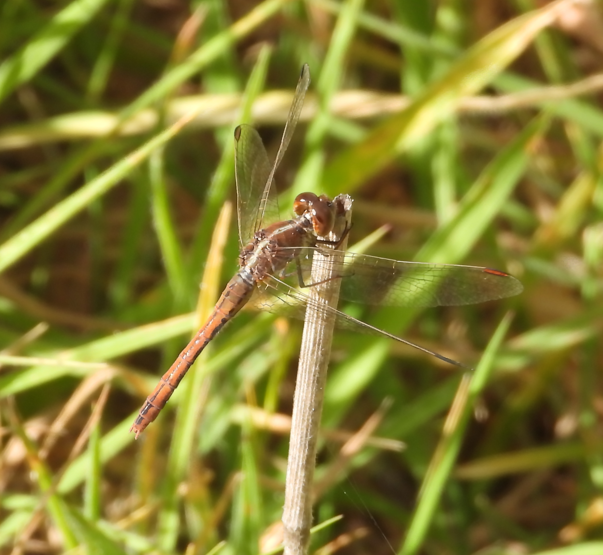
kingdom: Animalia
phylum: Arthropoda
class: Insecta
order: Odonata
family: Libellulidae
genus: Diplacodes
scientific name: Diplacodes bipunctata
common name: Red percher dragonfly
